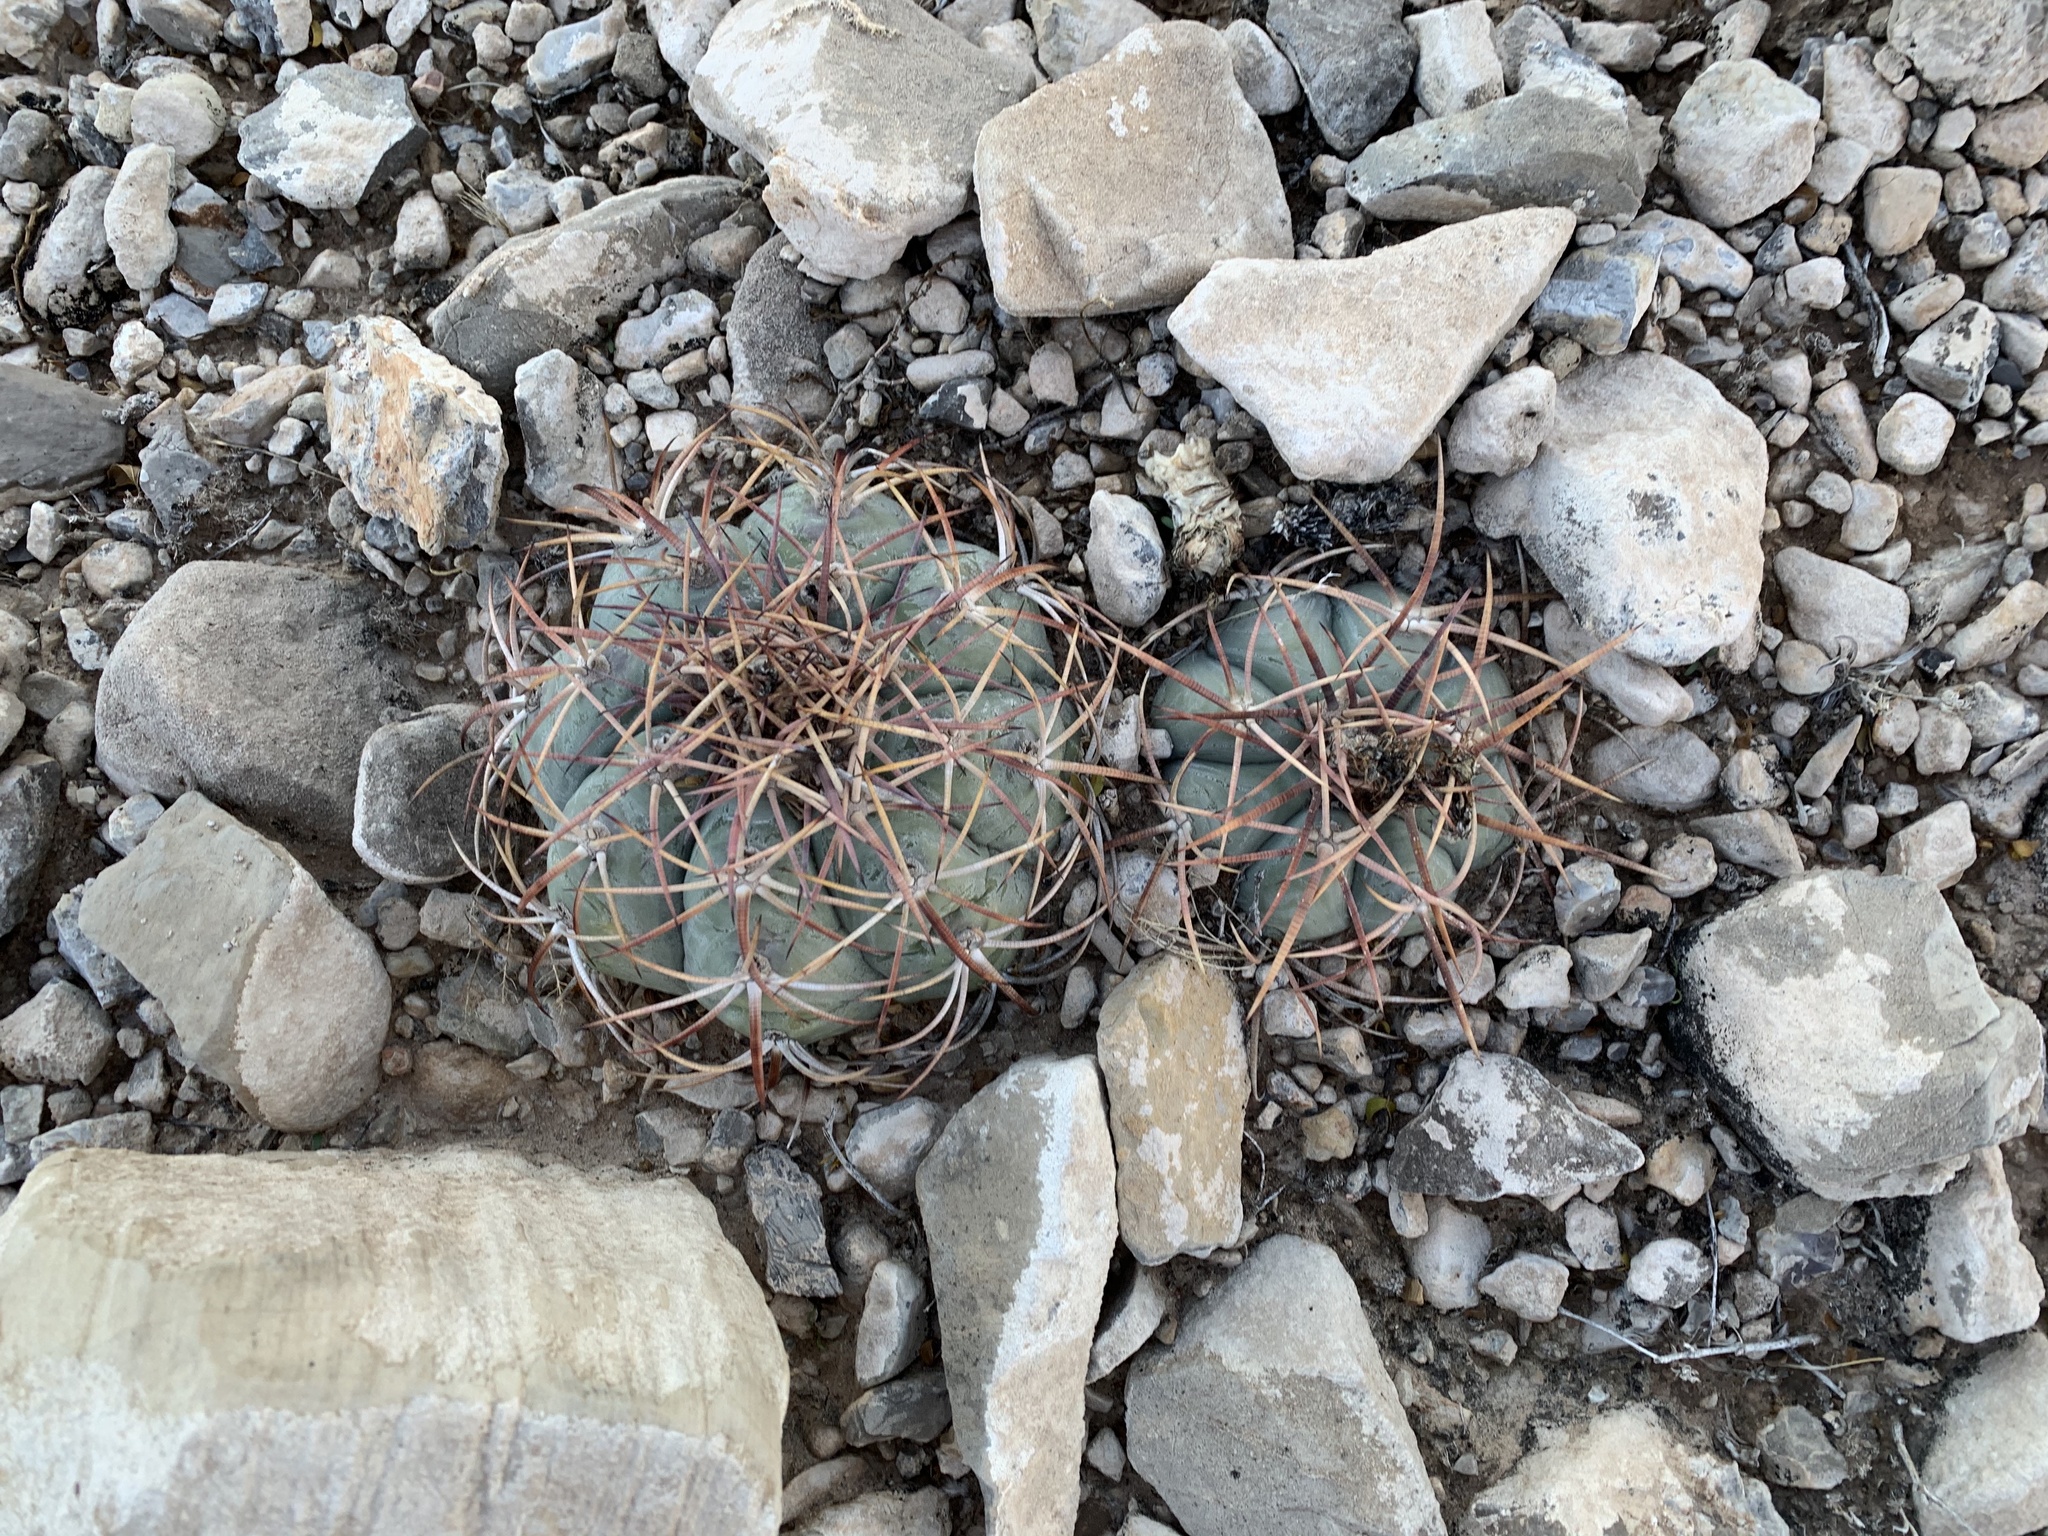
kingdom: Plantae
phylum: Tracheophyta
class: Magnoliopsida
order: Caryophyllales
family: Cactaceae
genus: Echinocactus
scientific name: Echinocactus horizonthalonius
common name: Devilshead
